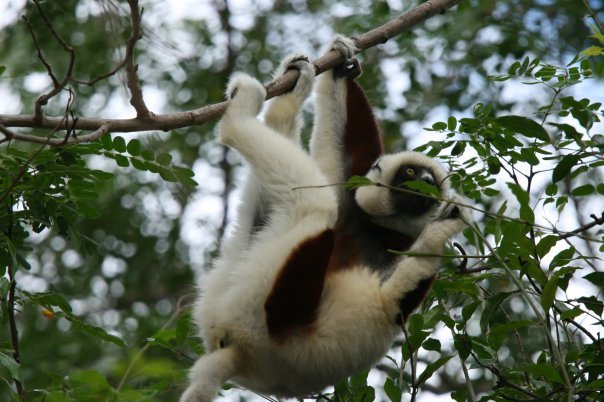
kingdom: Animalia
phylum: Chordata
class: Mammalia
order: Primates
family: Indriidae
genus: Propithecus
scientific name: Propithecus coquereli
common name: Coquerel's sifaka
